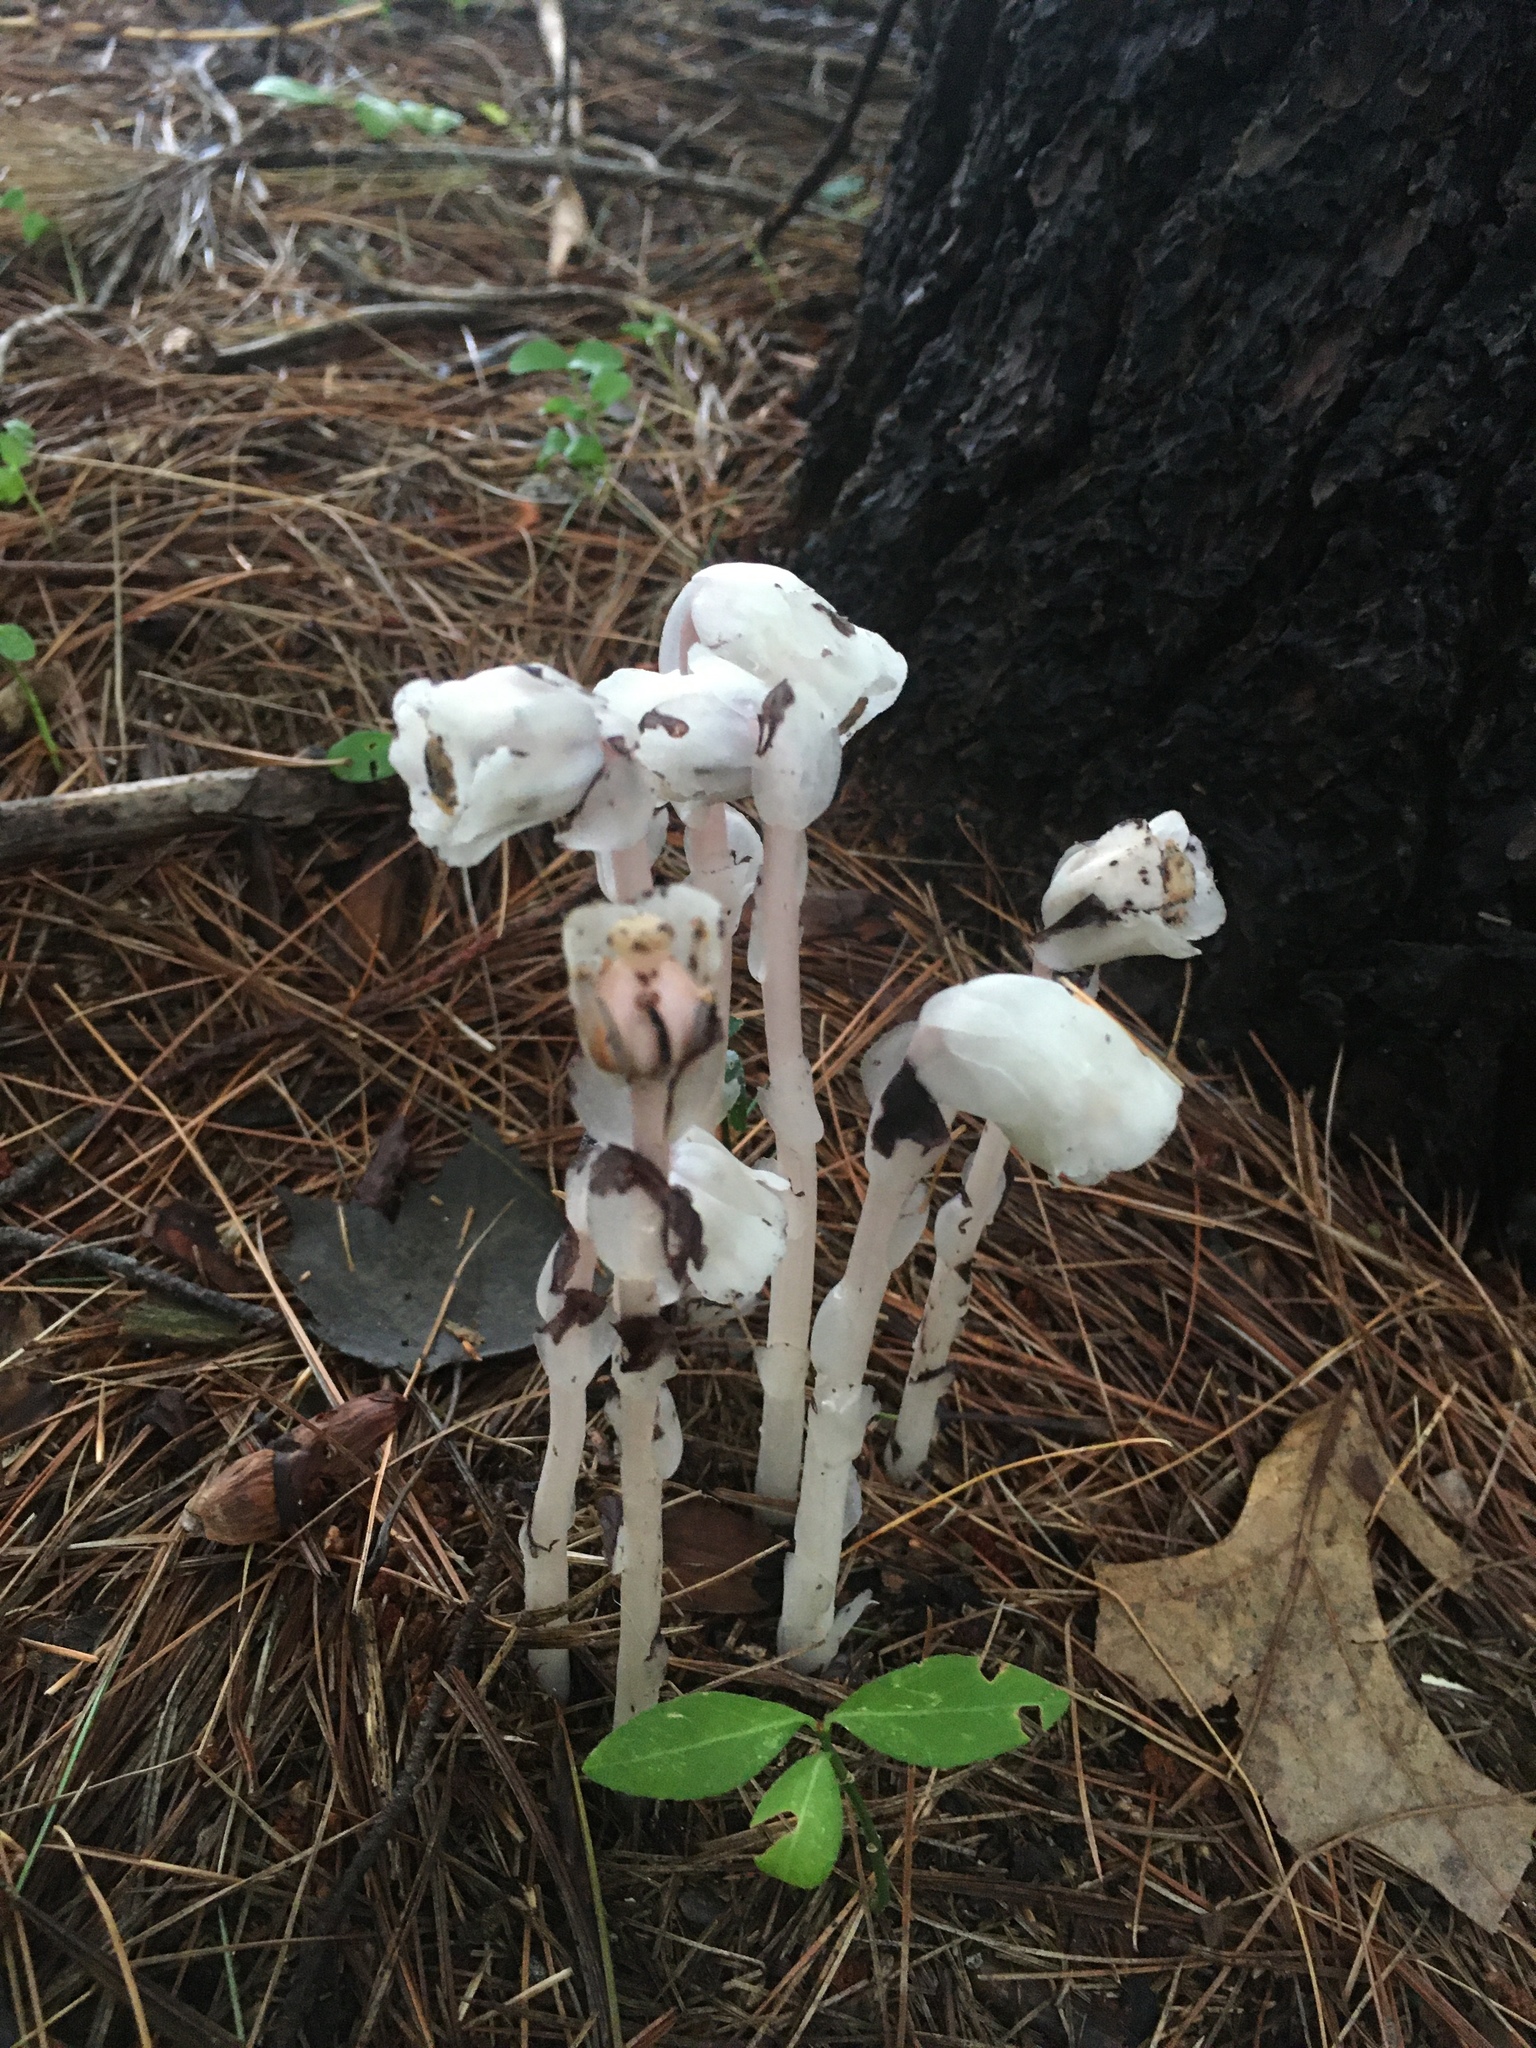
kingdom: Plantae
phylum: Tracheophyta
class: Magnoliopsida
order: Ericales
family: Ericaceae
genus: Monotropa
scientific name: Monotropa uniflora
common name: Convulsion root
